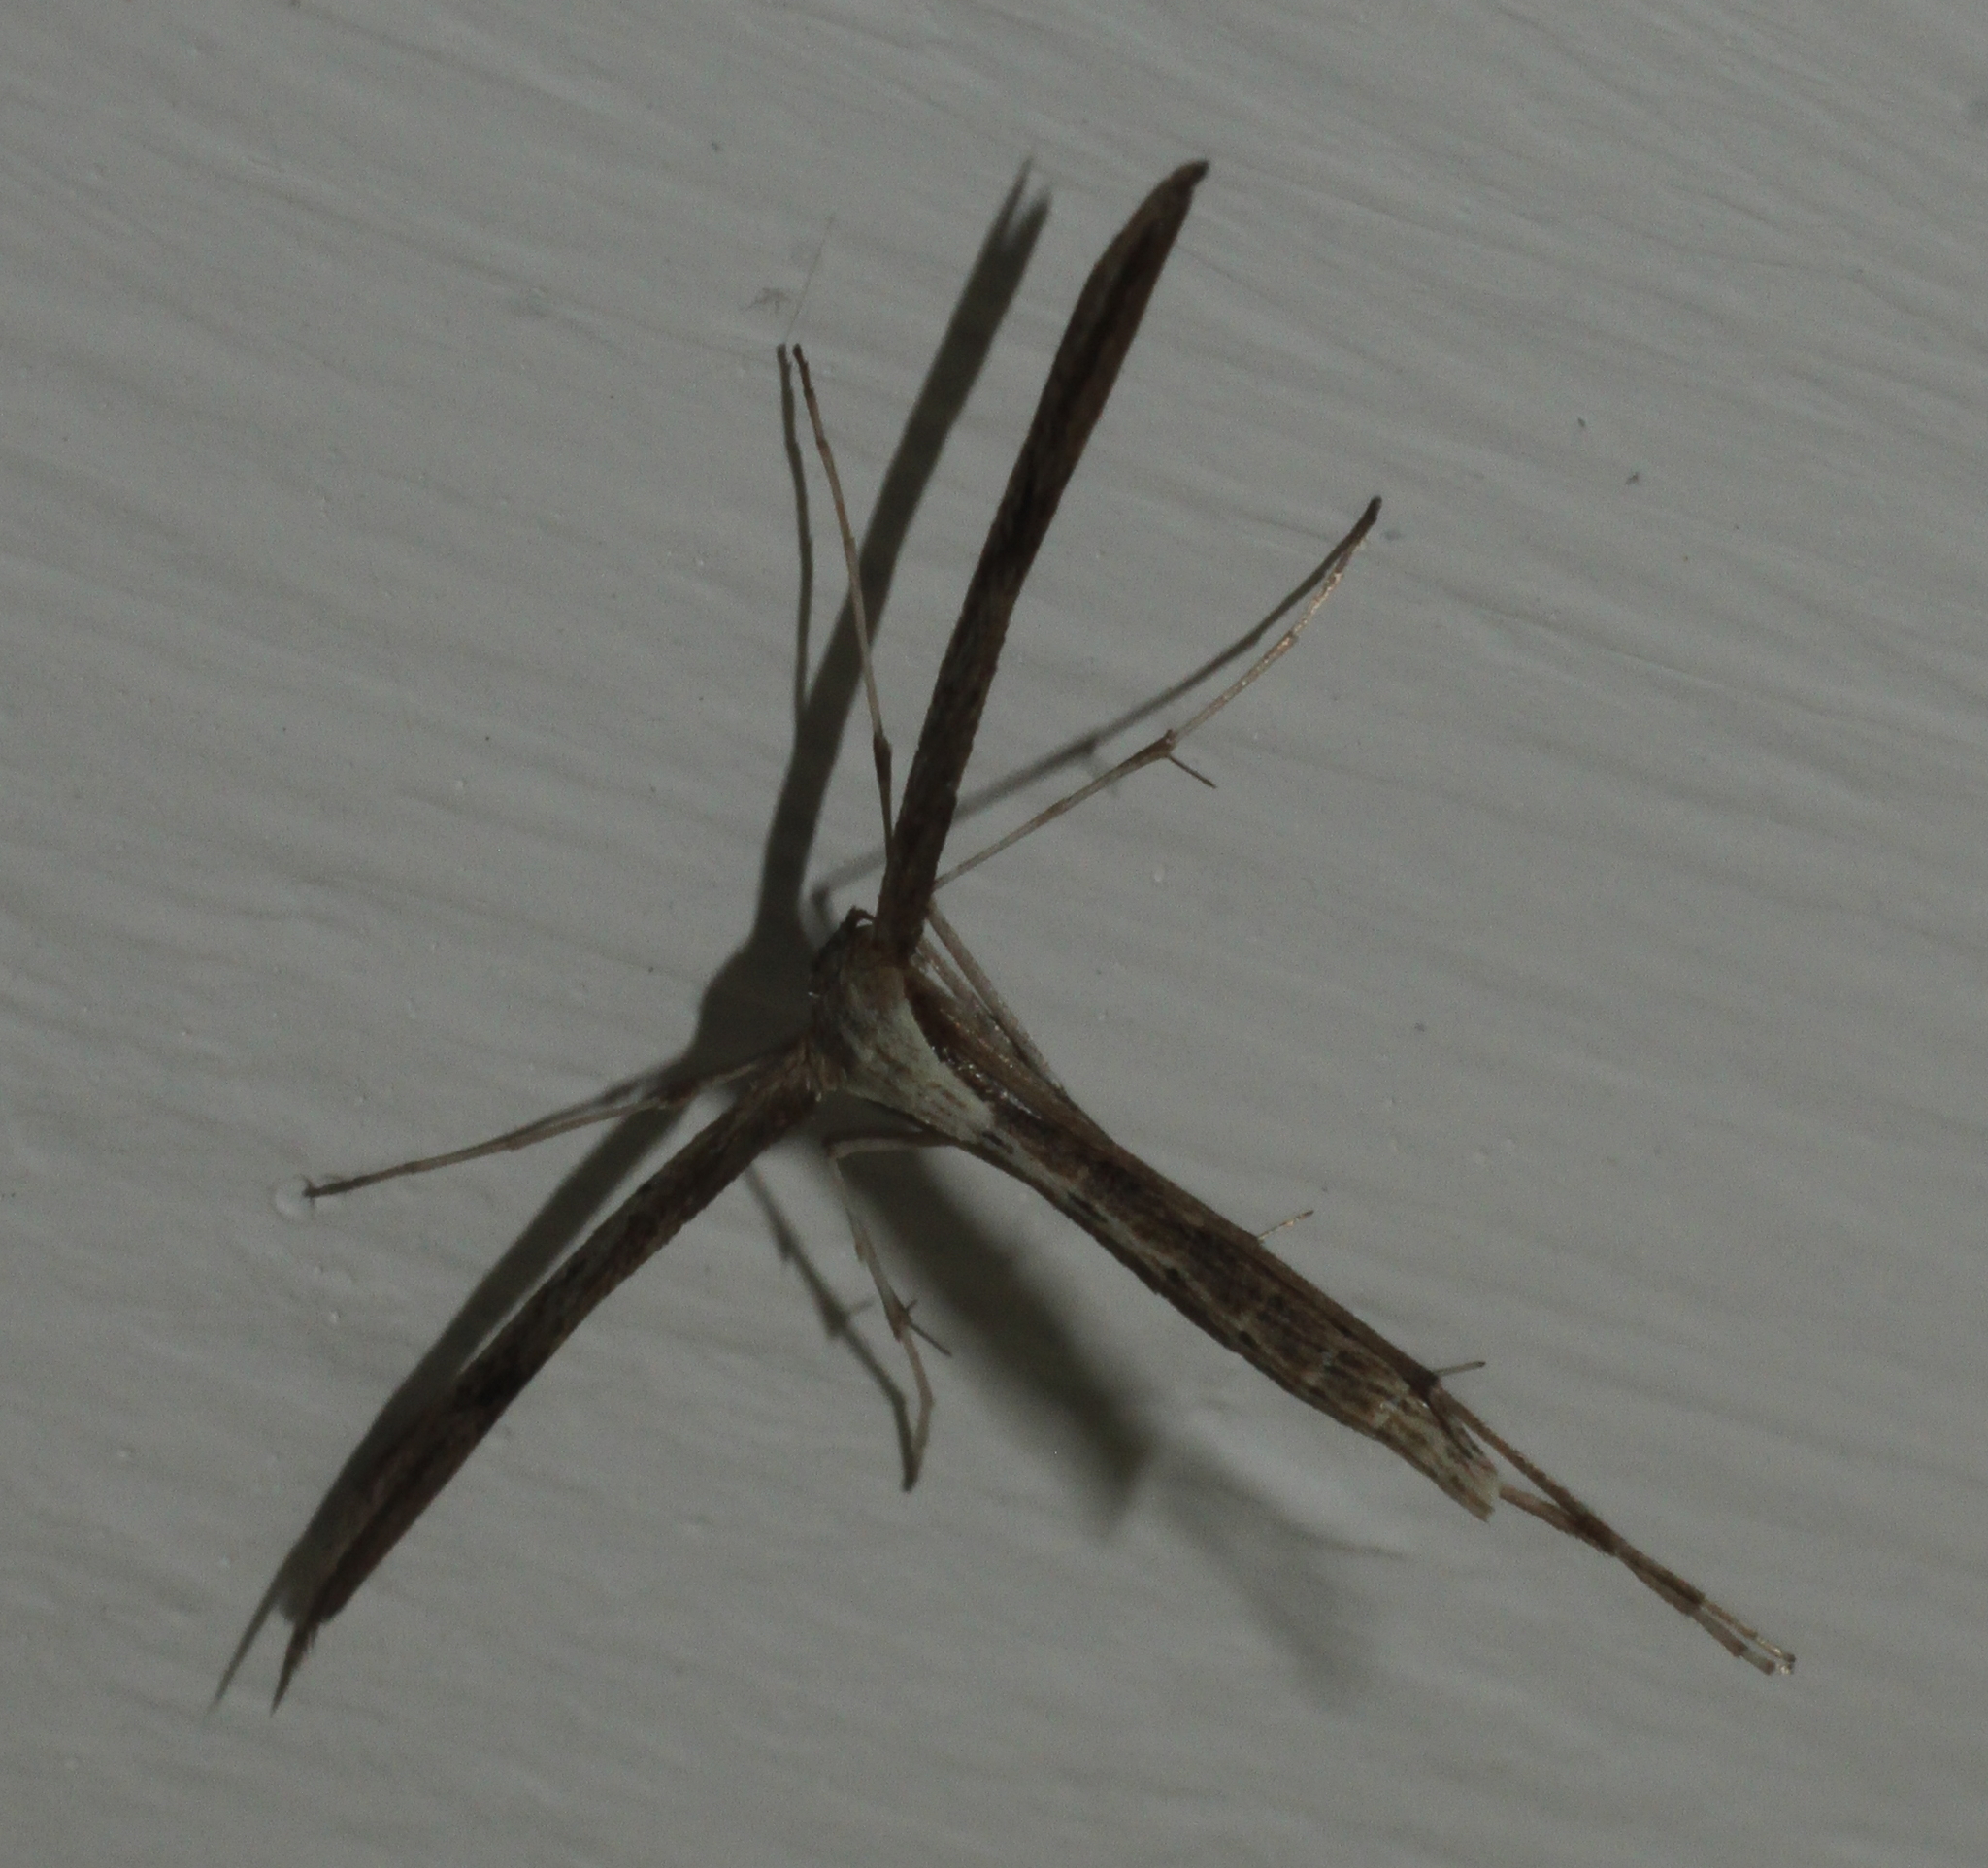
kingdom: Animalia
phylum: Arthropoda
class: Insecta
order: Lepidoptera
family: Pterophoridae
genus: Emmelina
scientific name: Emmelina monodactyla
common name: Common plume
